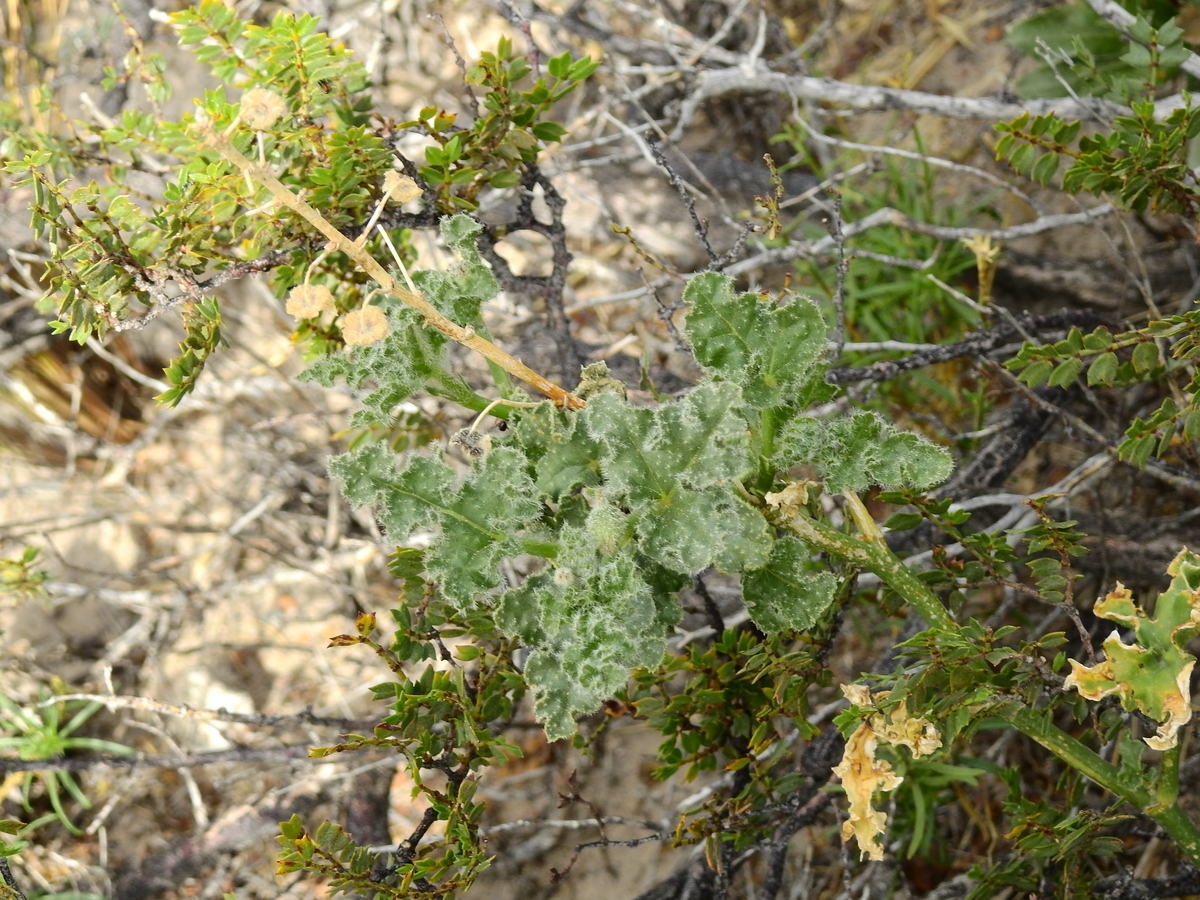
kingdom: Plantae
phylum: Tracheophyta
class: Magnoliopsida
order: Malvales
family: Malvaceae
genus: Lecanophora
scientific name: Lecanophora heterophylla
